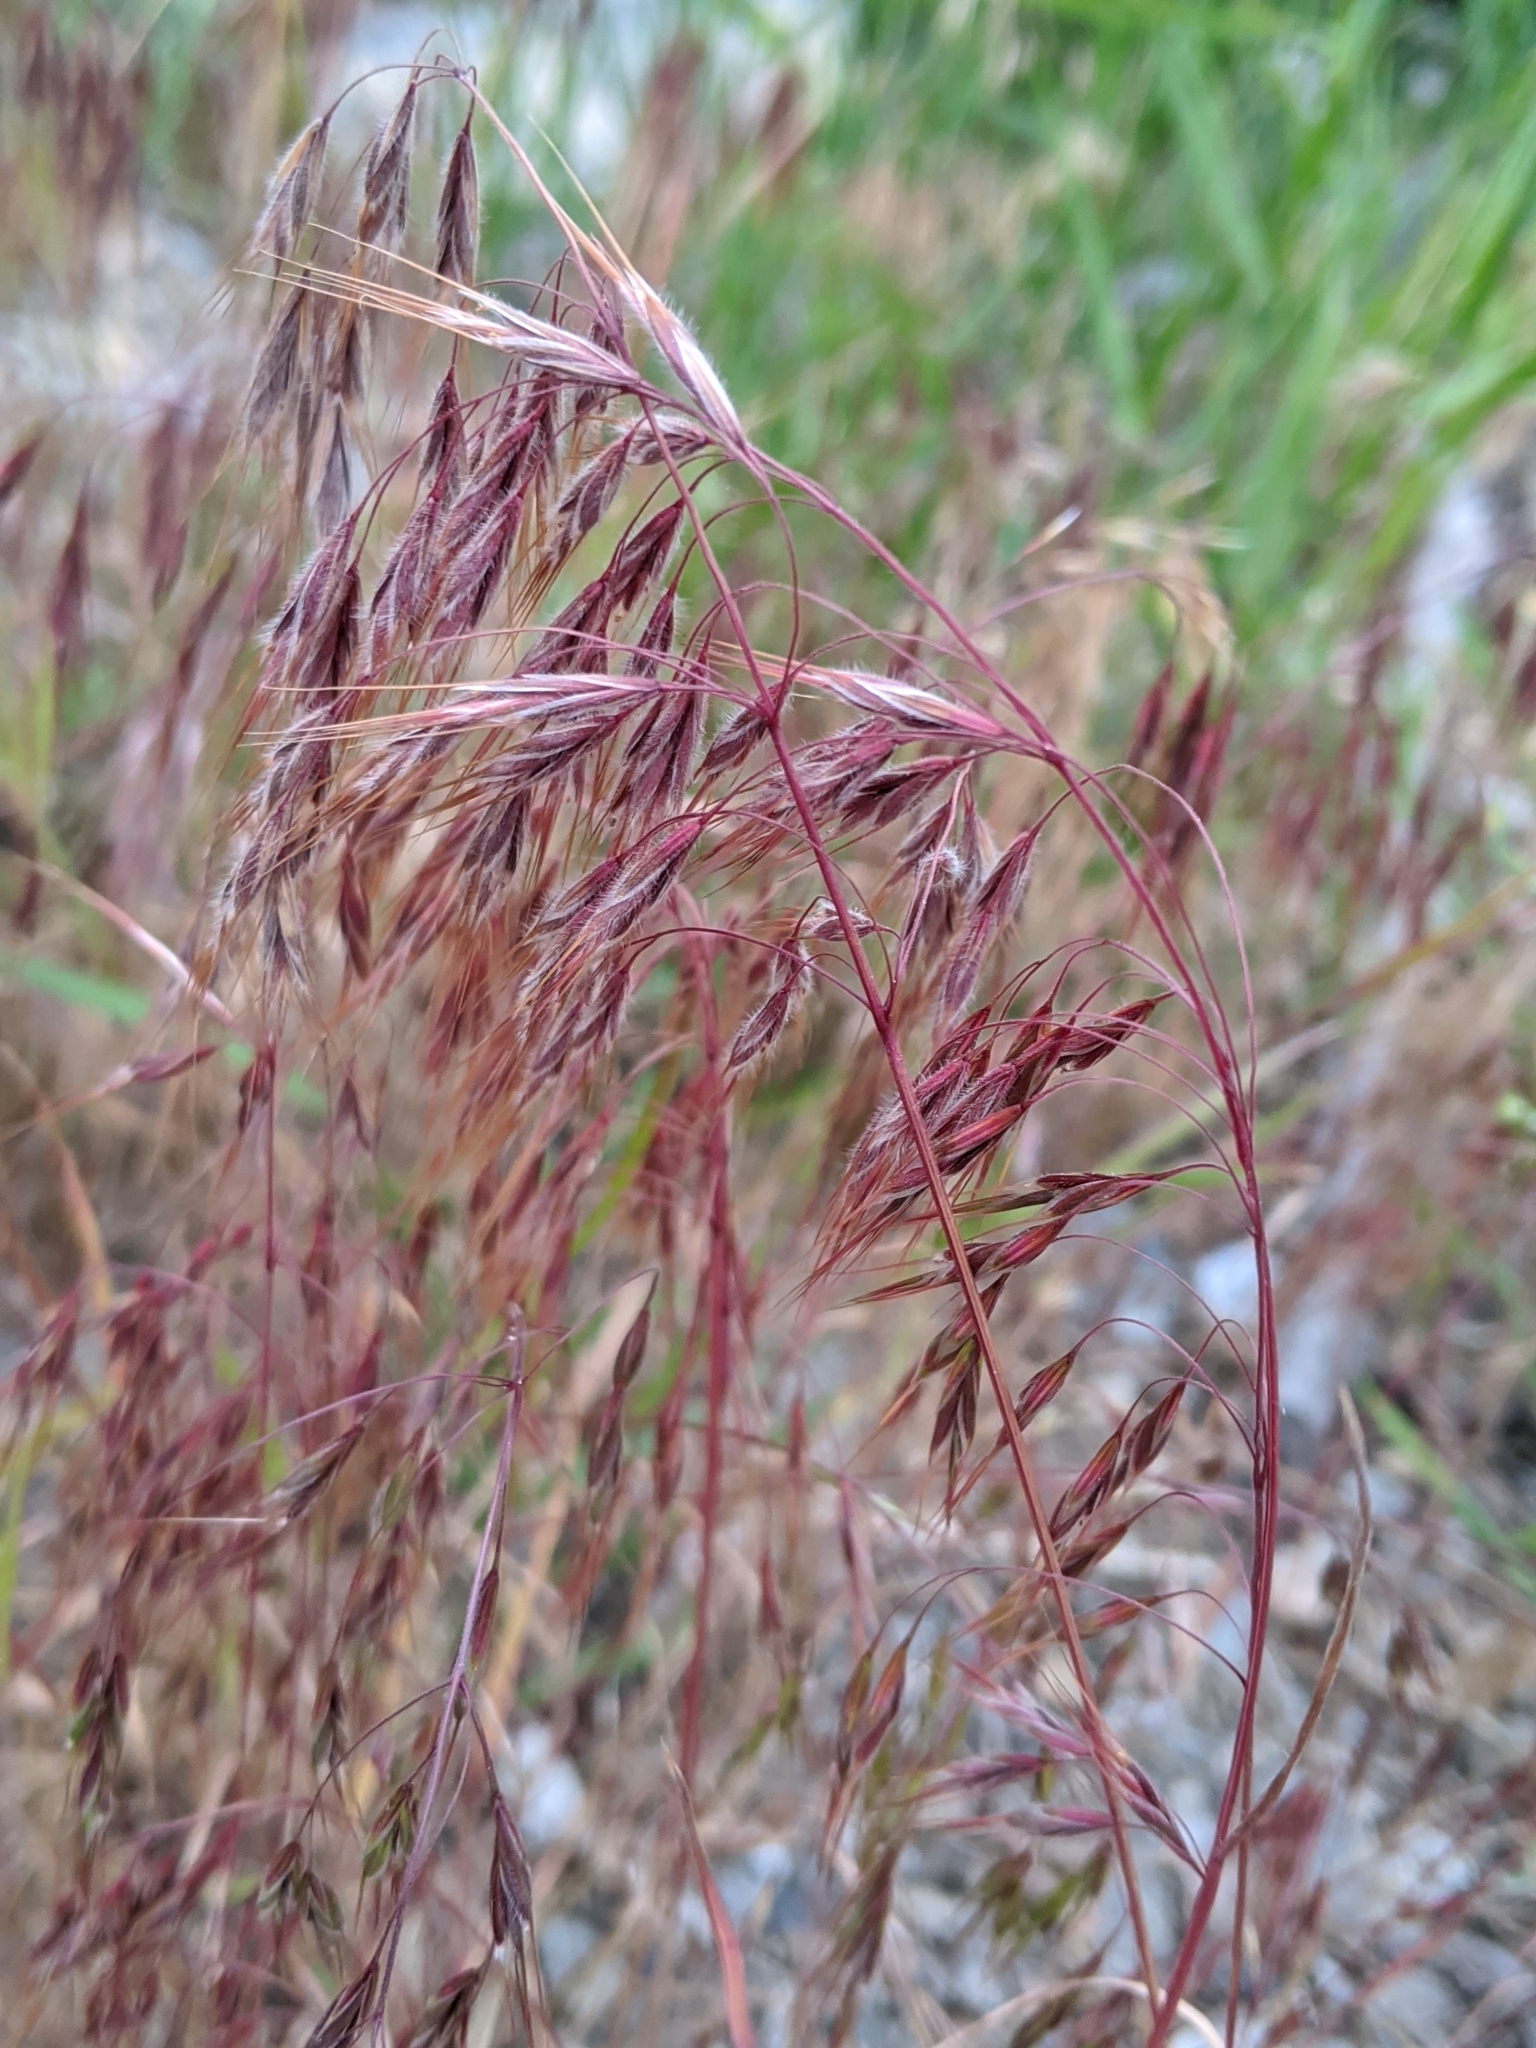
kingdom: Plantae
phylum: Tracheophyta
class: Liliopsida
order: Poales
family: Poaceae
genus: Bromus
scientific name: Bromus tectorum
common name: Cheatgrass
